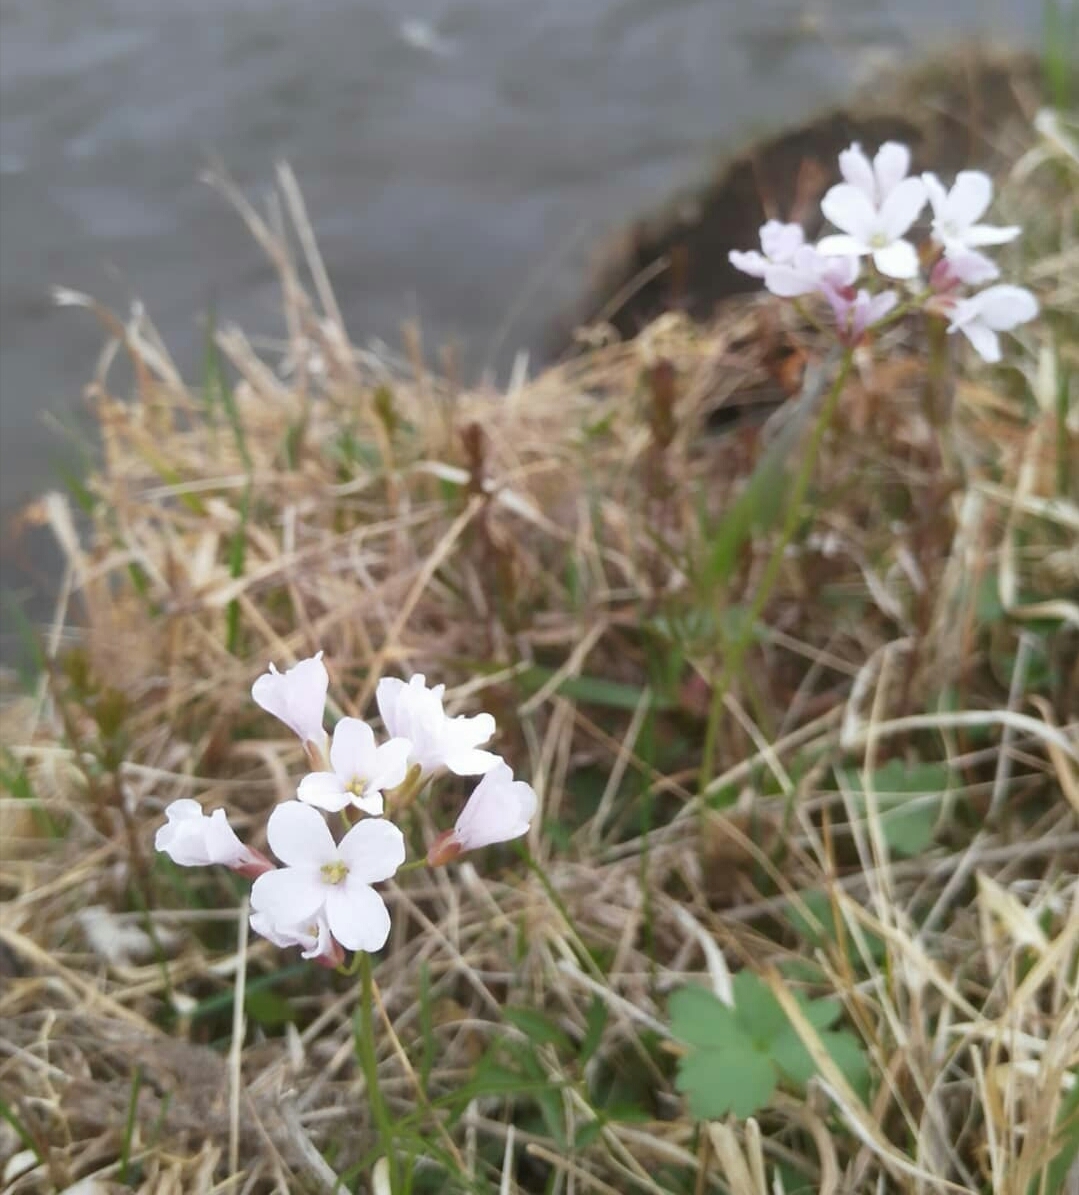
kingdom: Plantae
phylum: Tracheophyta
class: Magnoliopsida
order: Brassicales
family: Brassicaceae
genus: Cardamine
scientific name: Cardamine trifida
